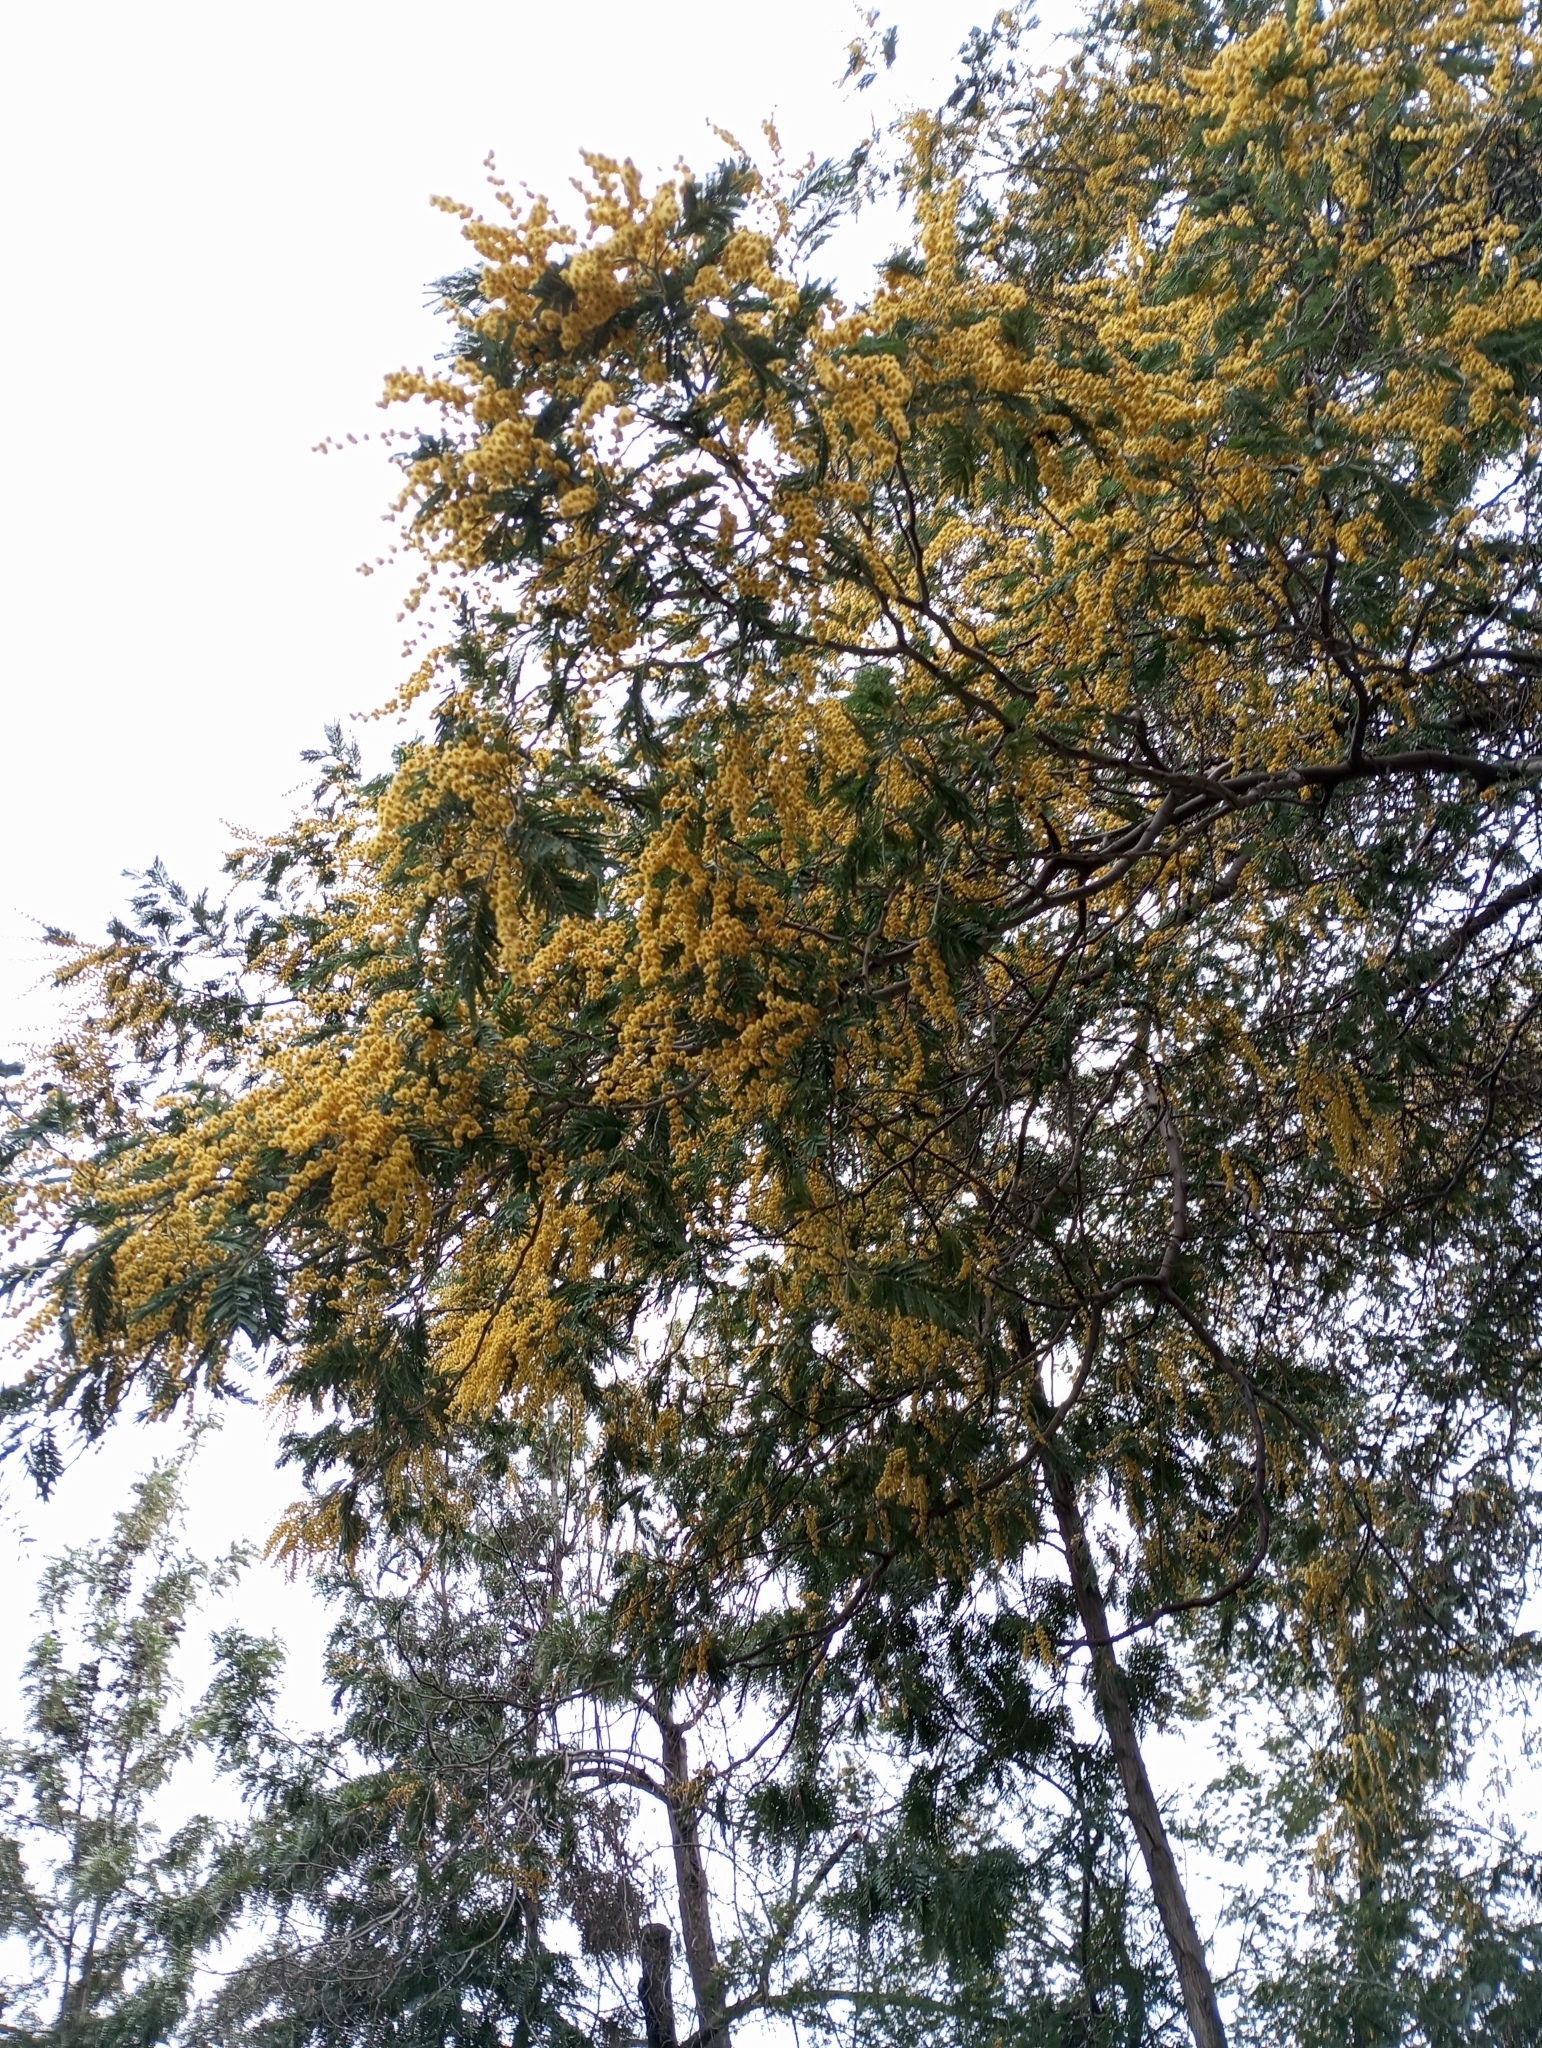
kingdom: Plantae
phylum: Tracheophyta
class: Magnoliopsida
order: Fabales
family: Fabaceae
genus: Acacia
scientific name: Acacia dealbata
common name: Silver wattle
